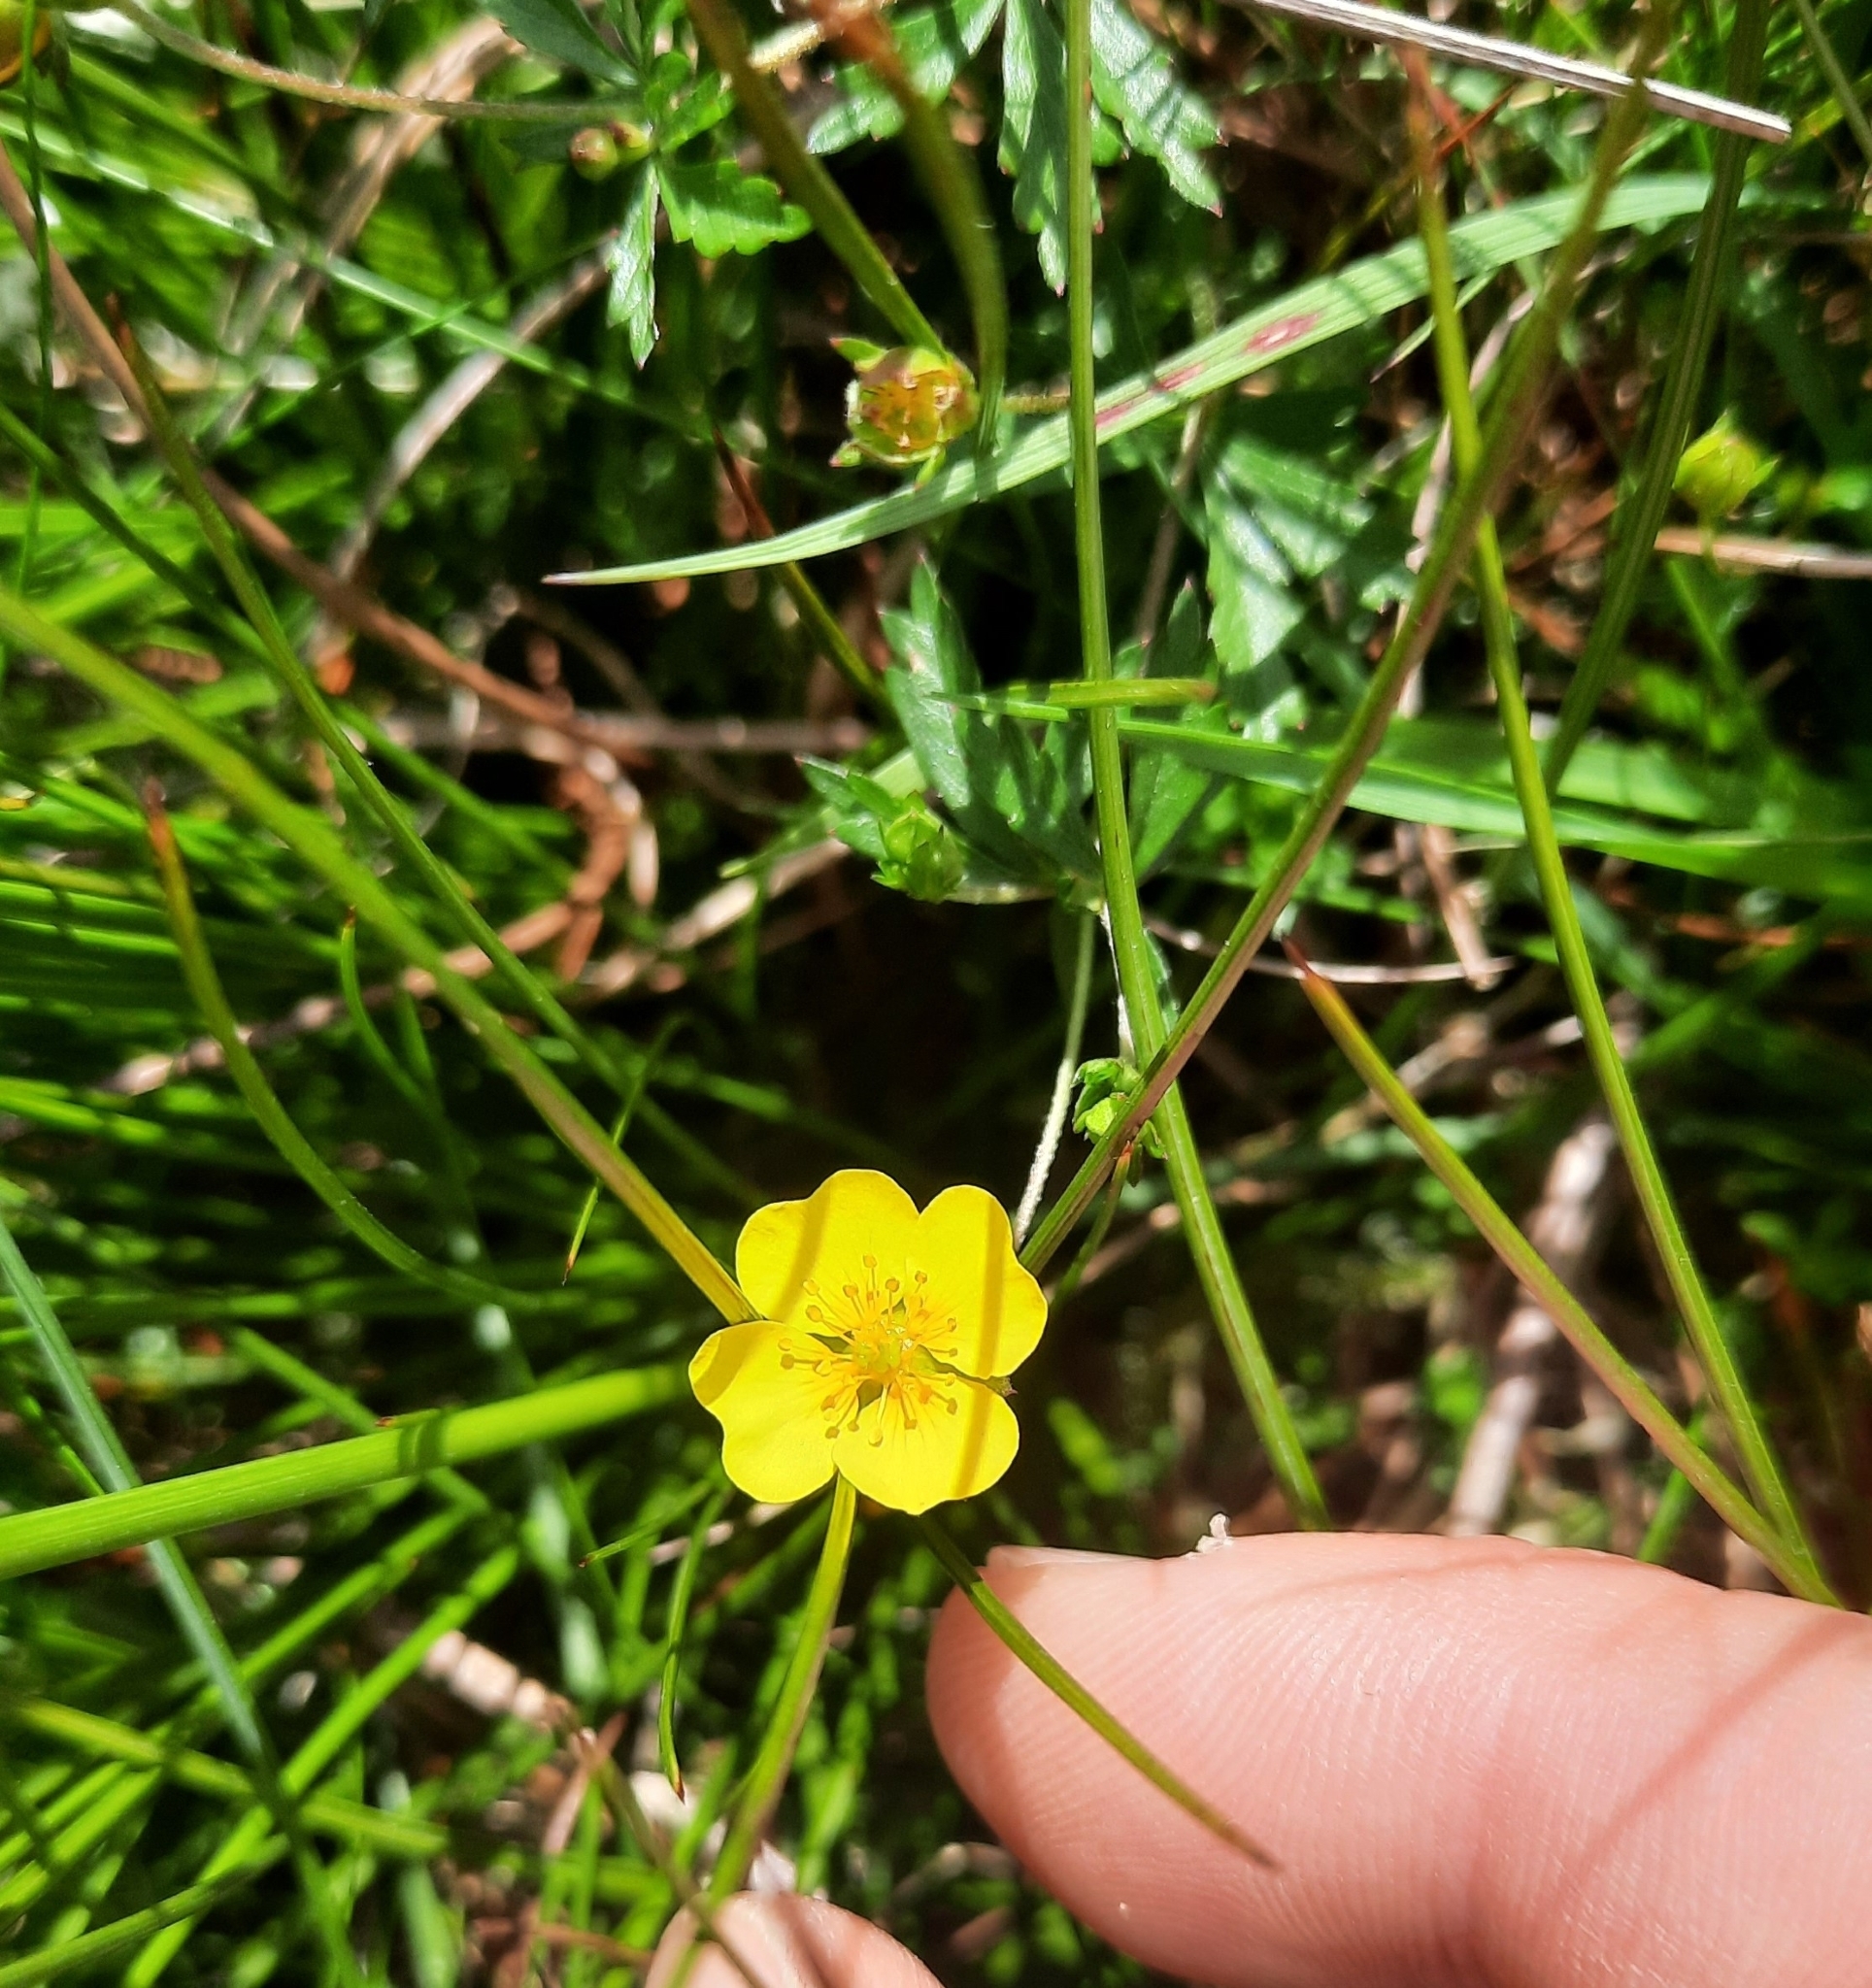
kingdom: Plantae
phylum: Tracheophyta
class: Magnoliopsida
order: Rosales
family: Rosaceae
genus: Potentilla
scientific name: Potentilla erecta
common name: Tormentil
